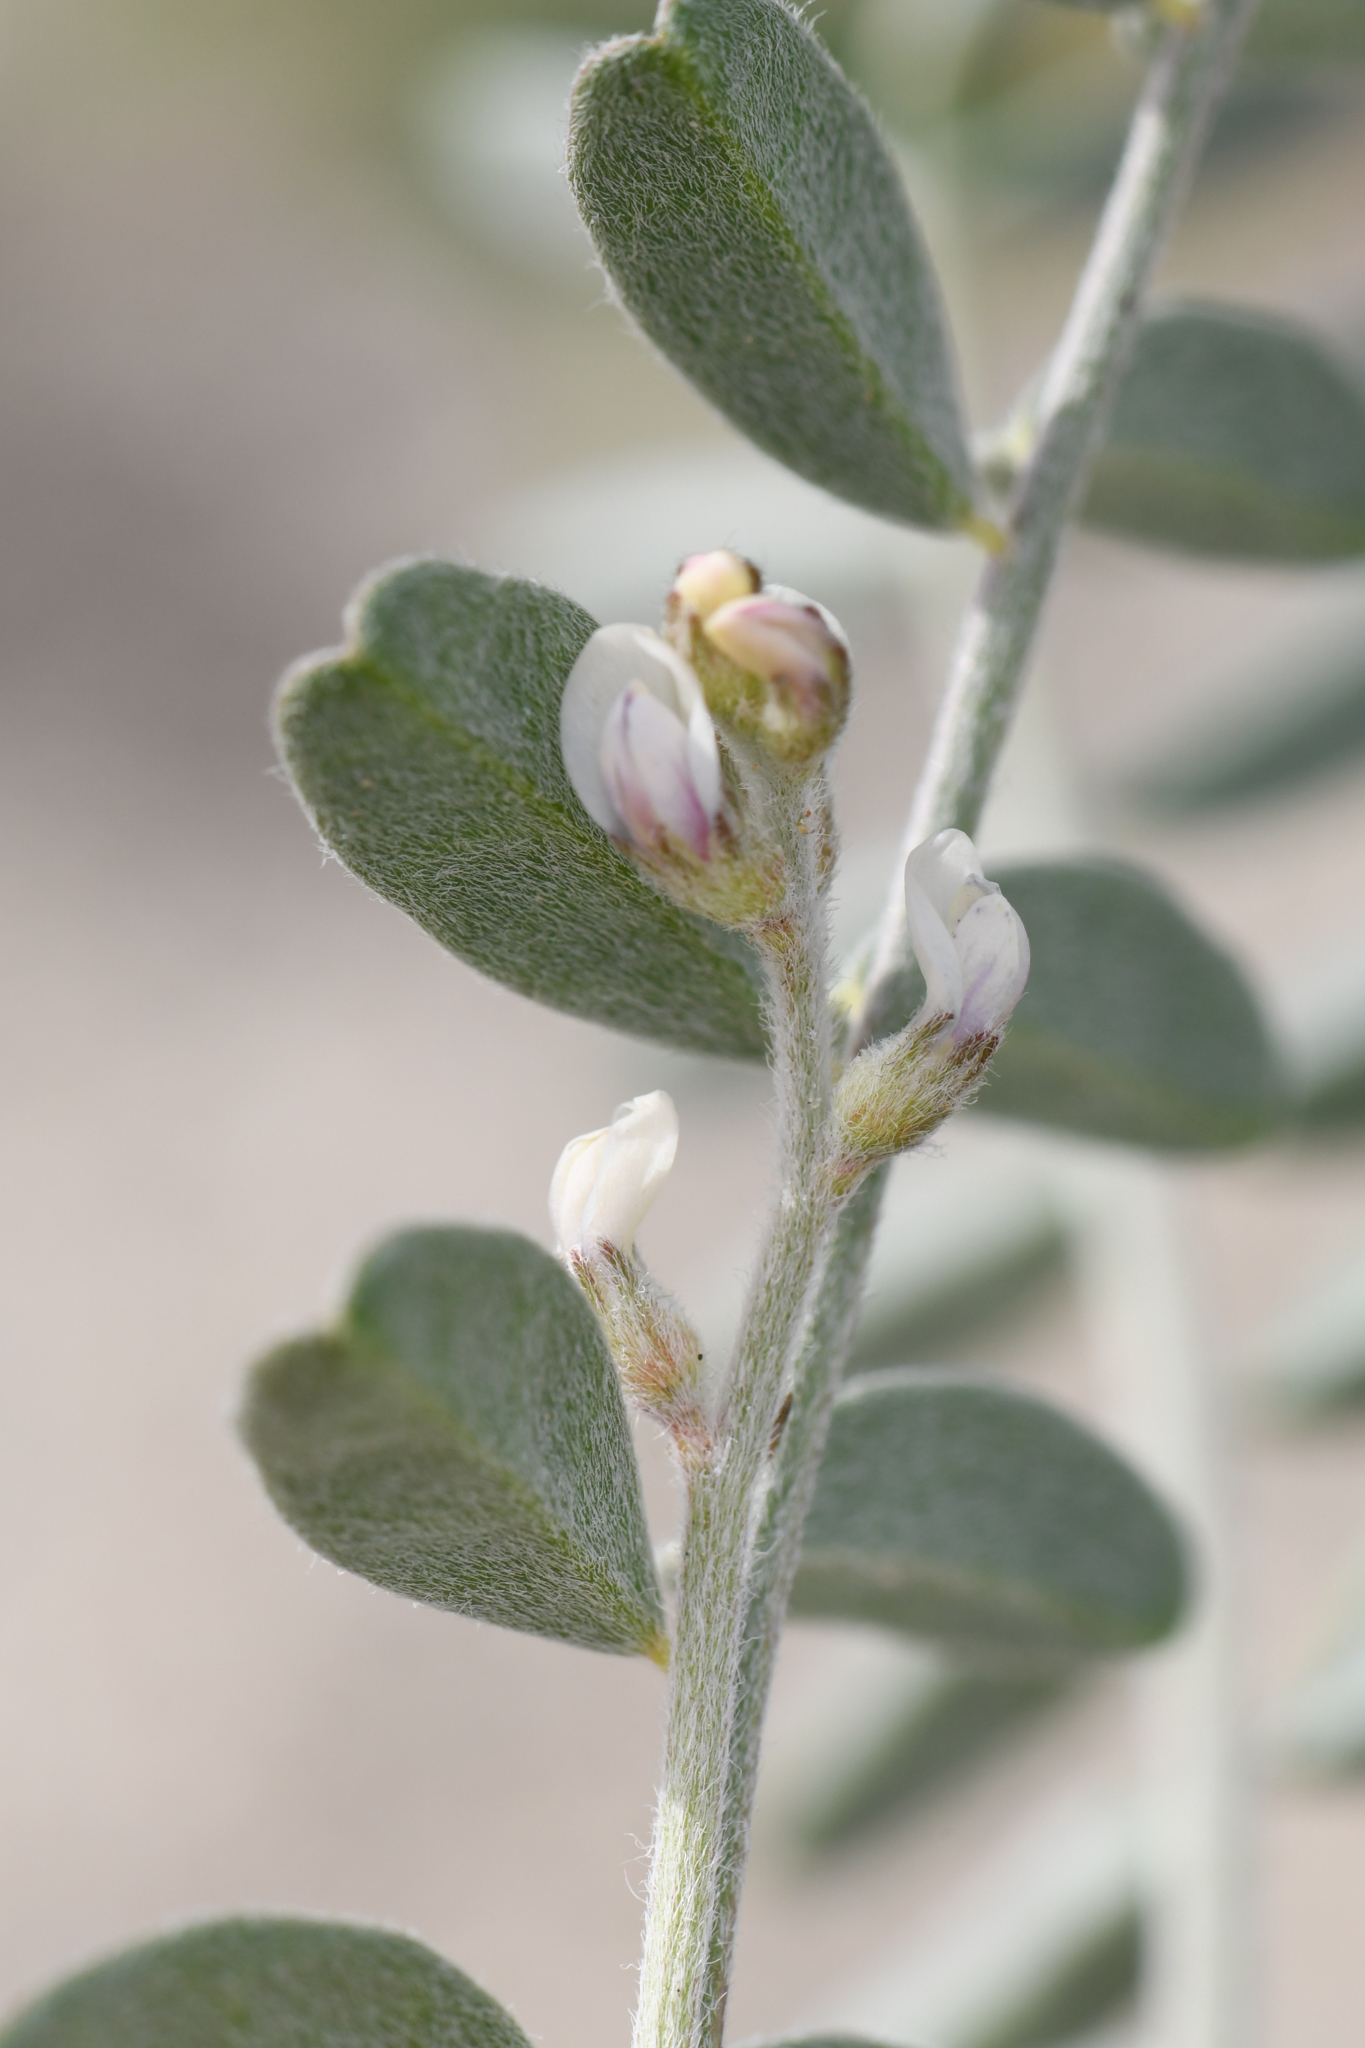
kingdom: Plantae
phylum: Tracheophyta
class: Magnoliopsida
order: Fabales
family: Fabaceae
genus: Astragalus
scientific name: Astragalus aridus
